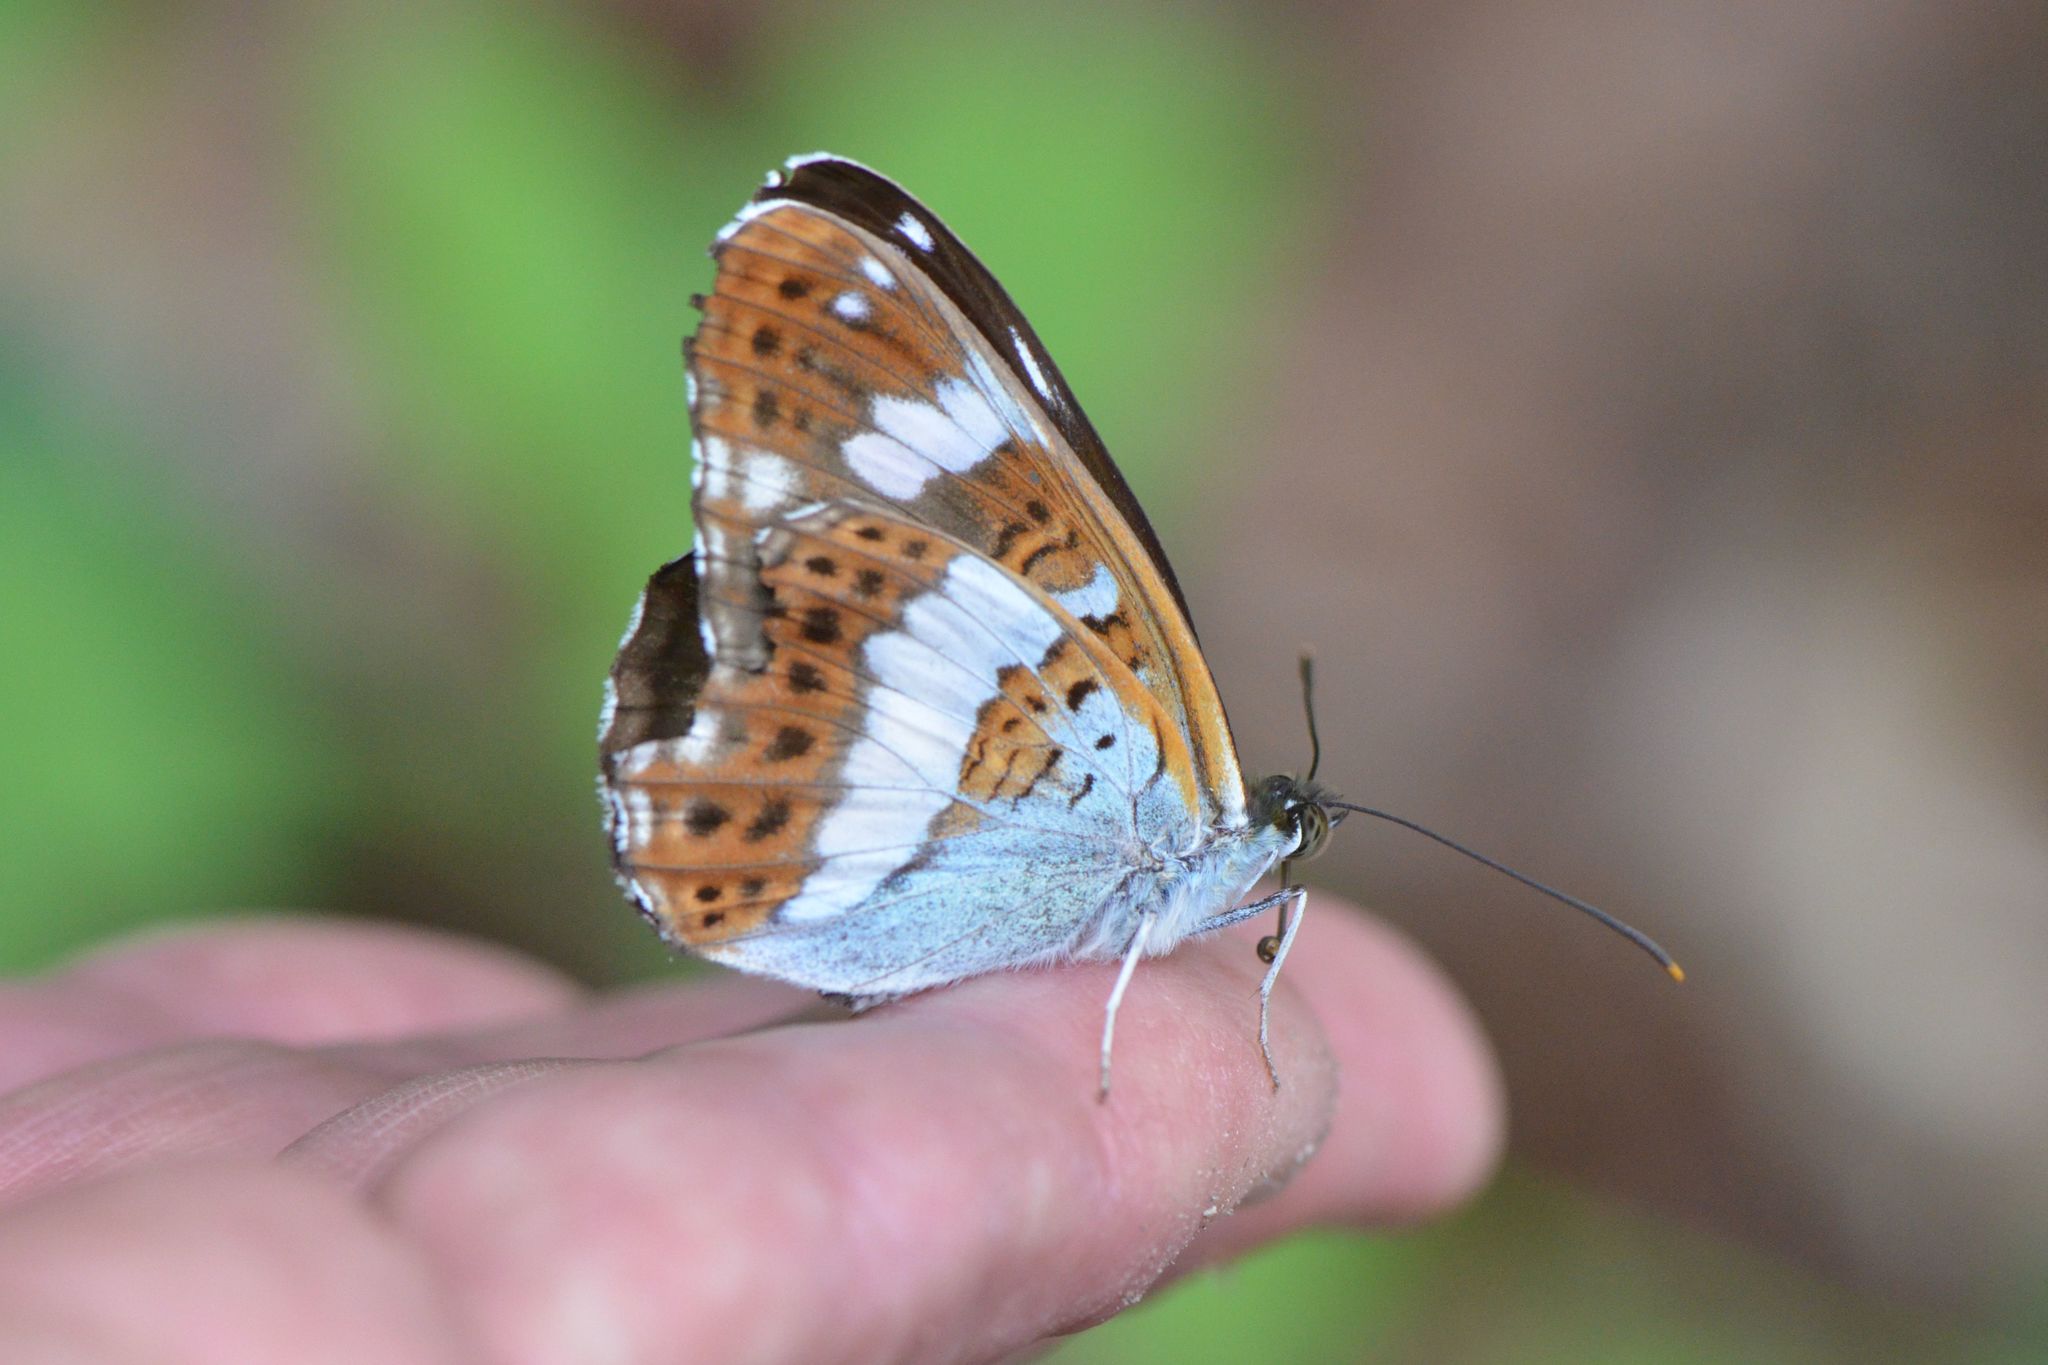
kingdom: Animalia
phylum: Arthropoda
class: Insecta
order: Lepidoptera
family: Nymphalidae
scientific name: Nymphalidae
